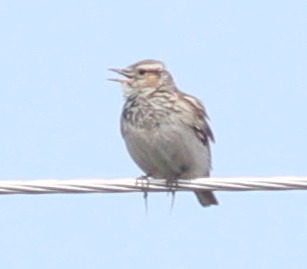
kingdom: Animalia
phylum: Chordata
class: Aves
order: Passeriformes
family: Alaudidae
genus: Lullula
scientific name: Lullula arborea
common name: Woodlark
